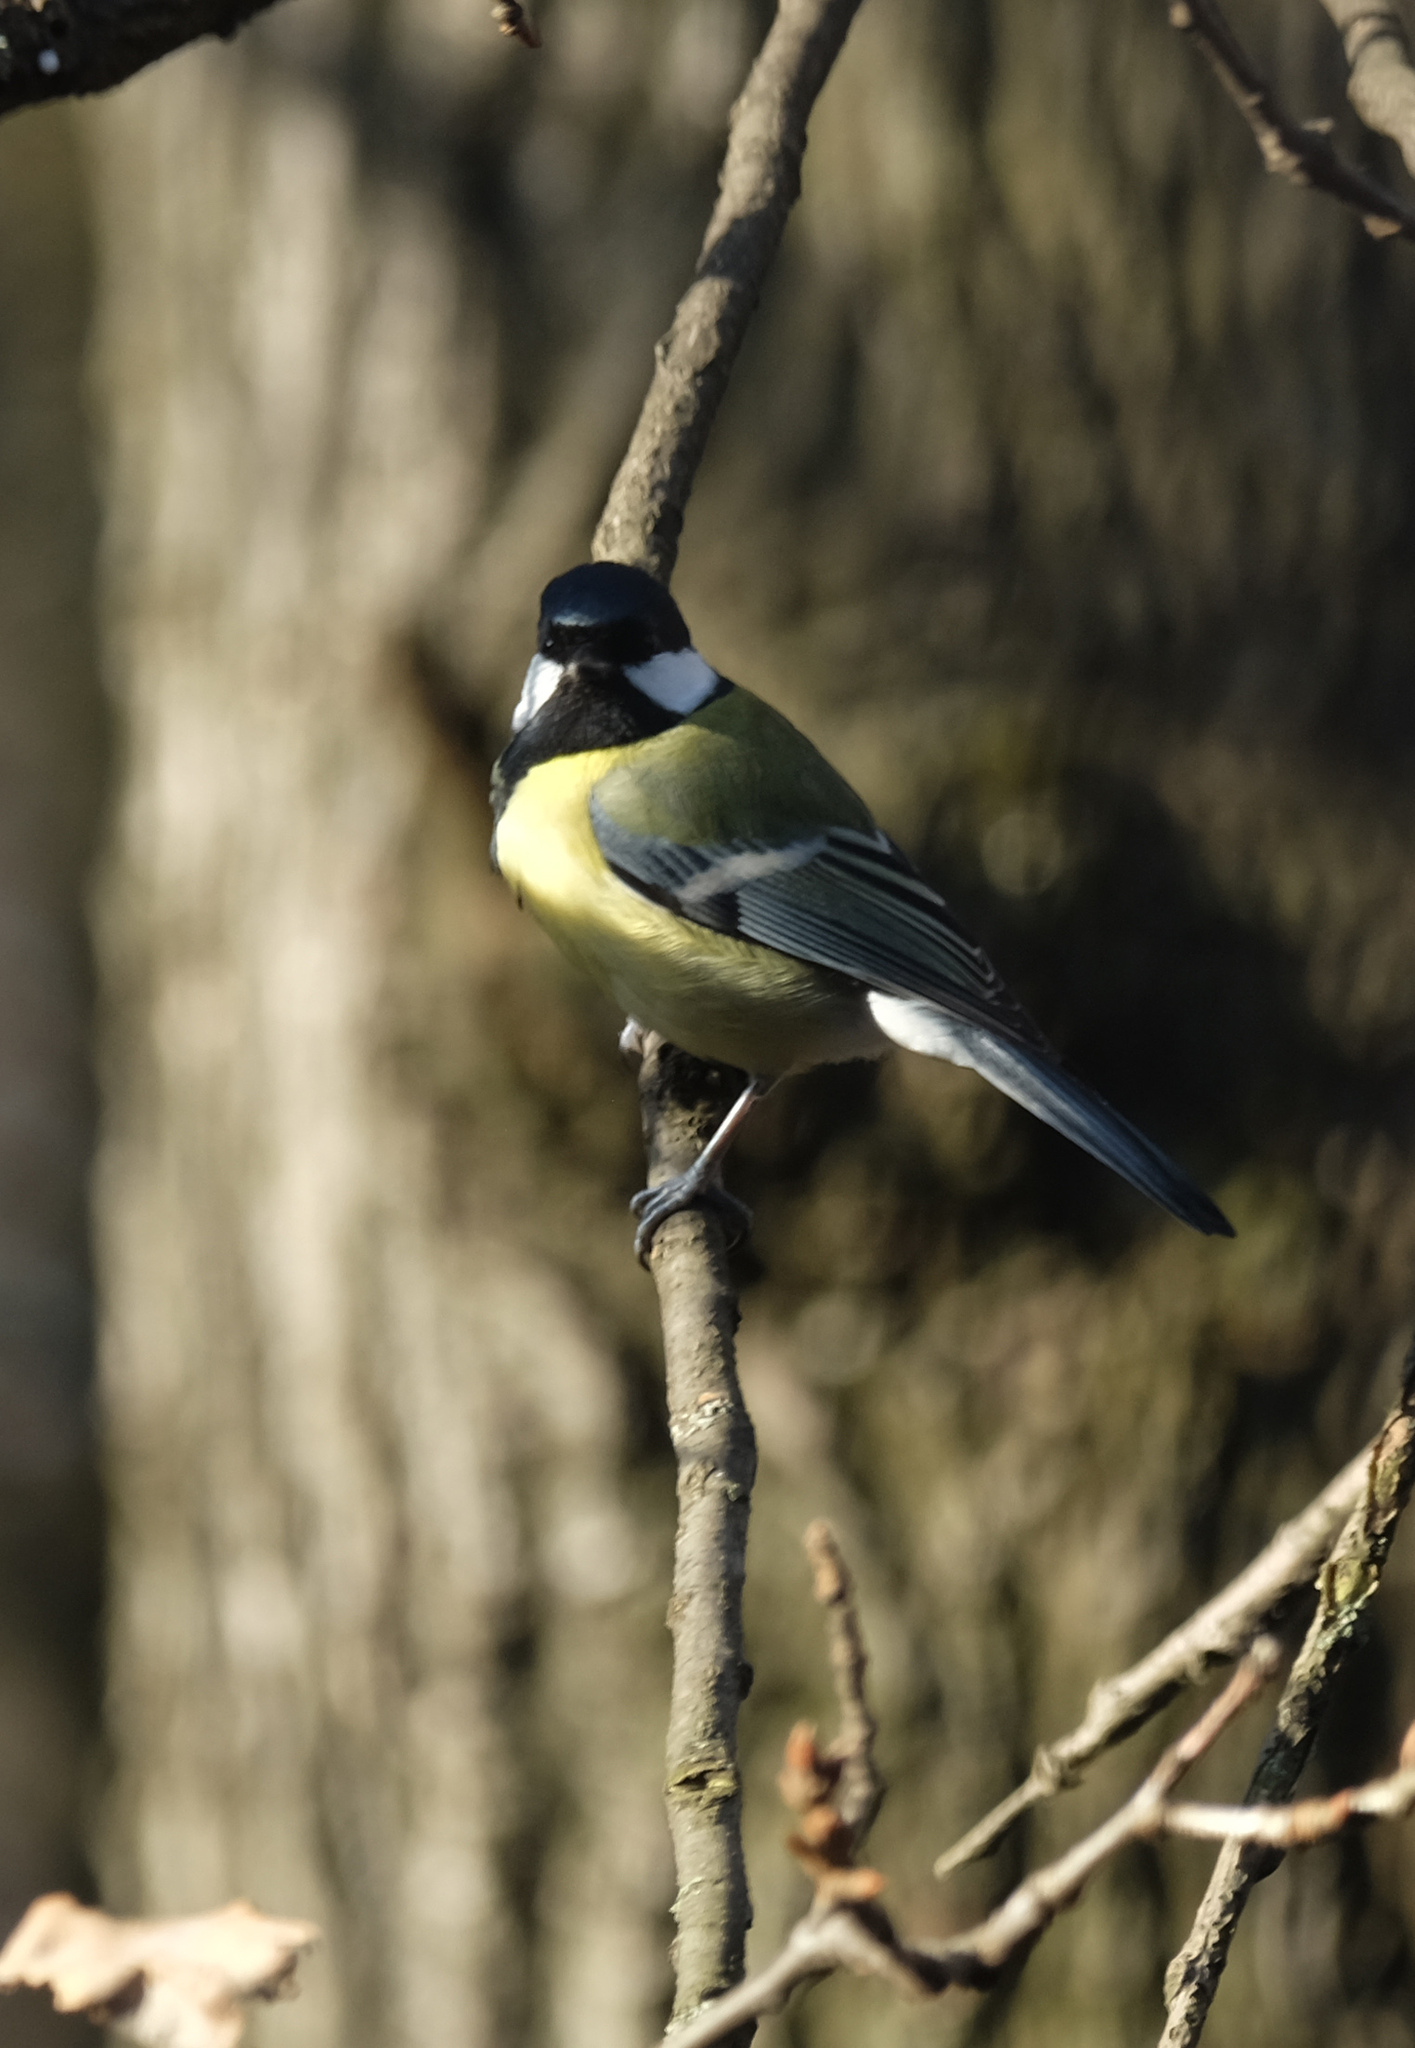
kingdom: Animalia
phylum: Chordata
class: Aves
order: Passeriformes
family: Paridae
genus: Parus
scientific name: Parus major
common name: Great tit
